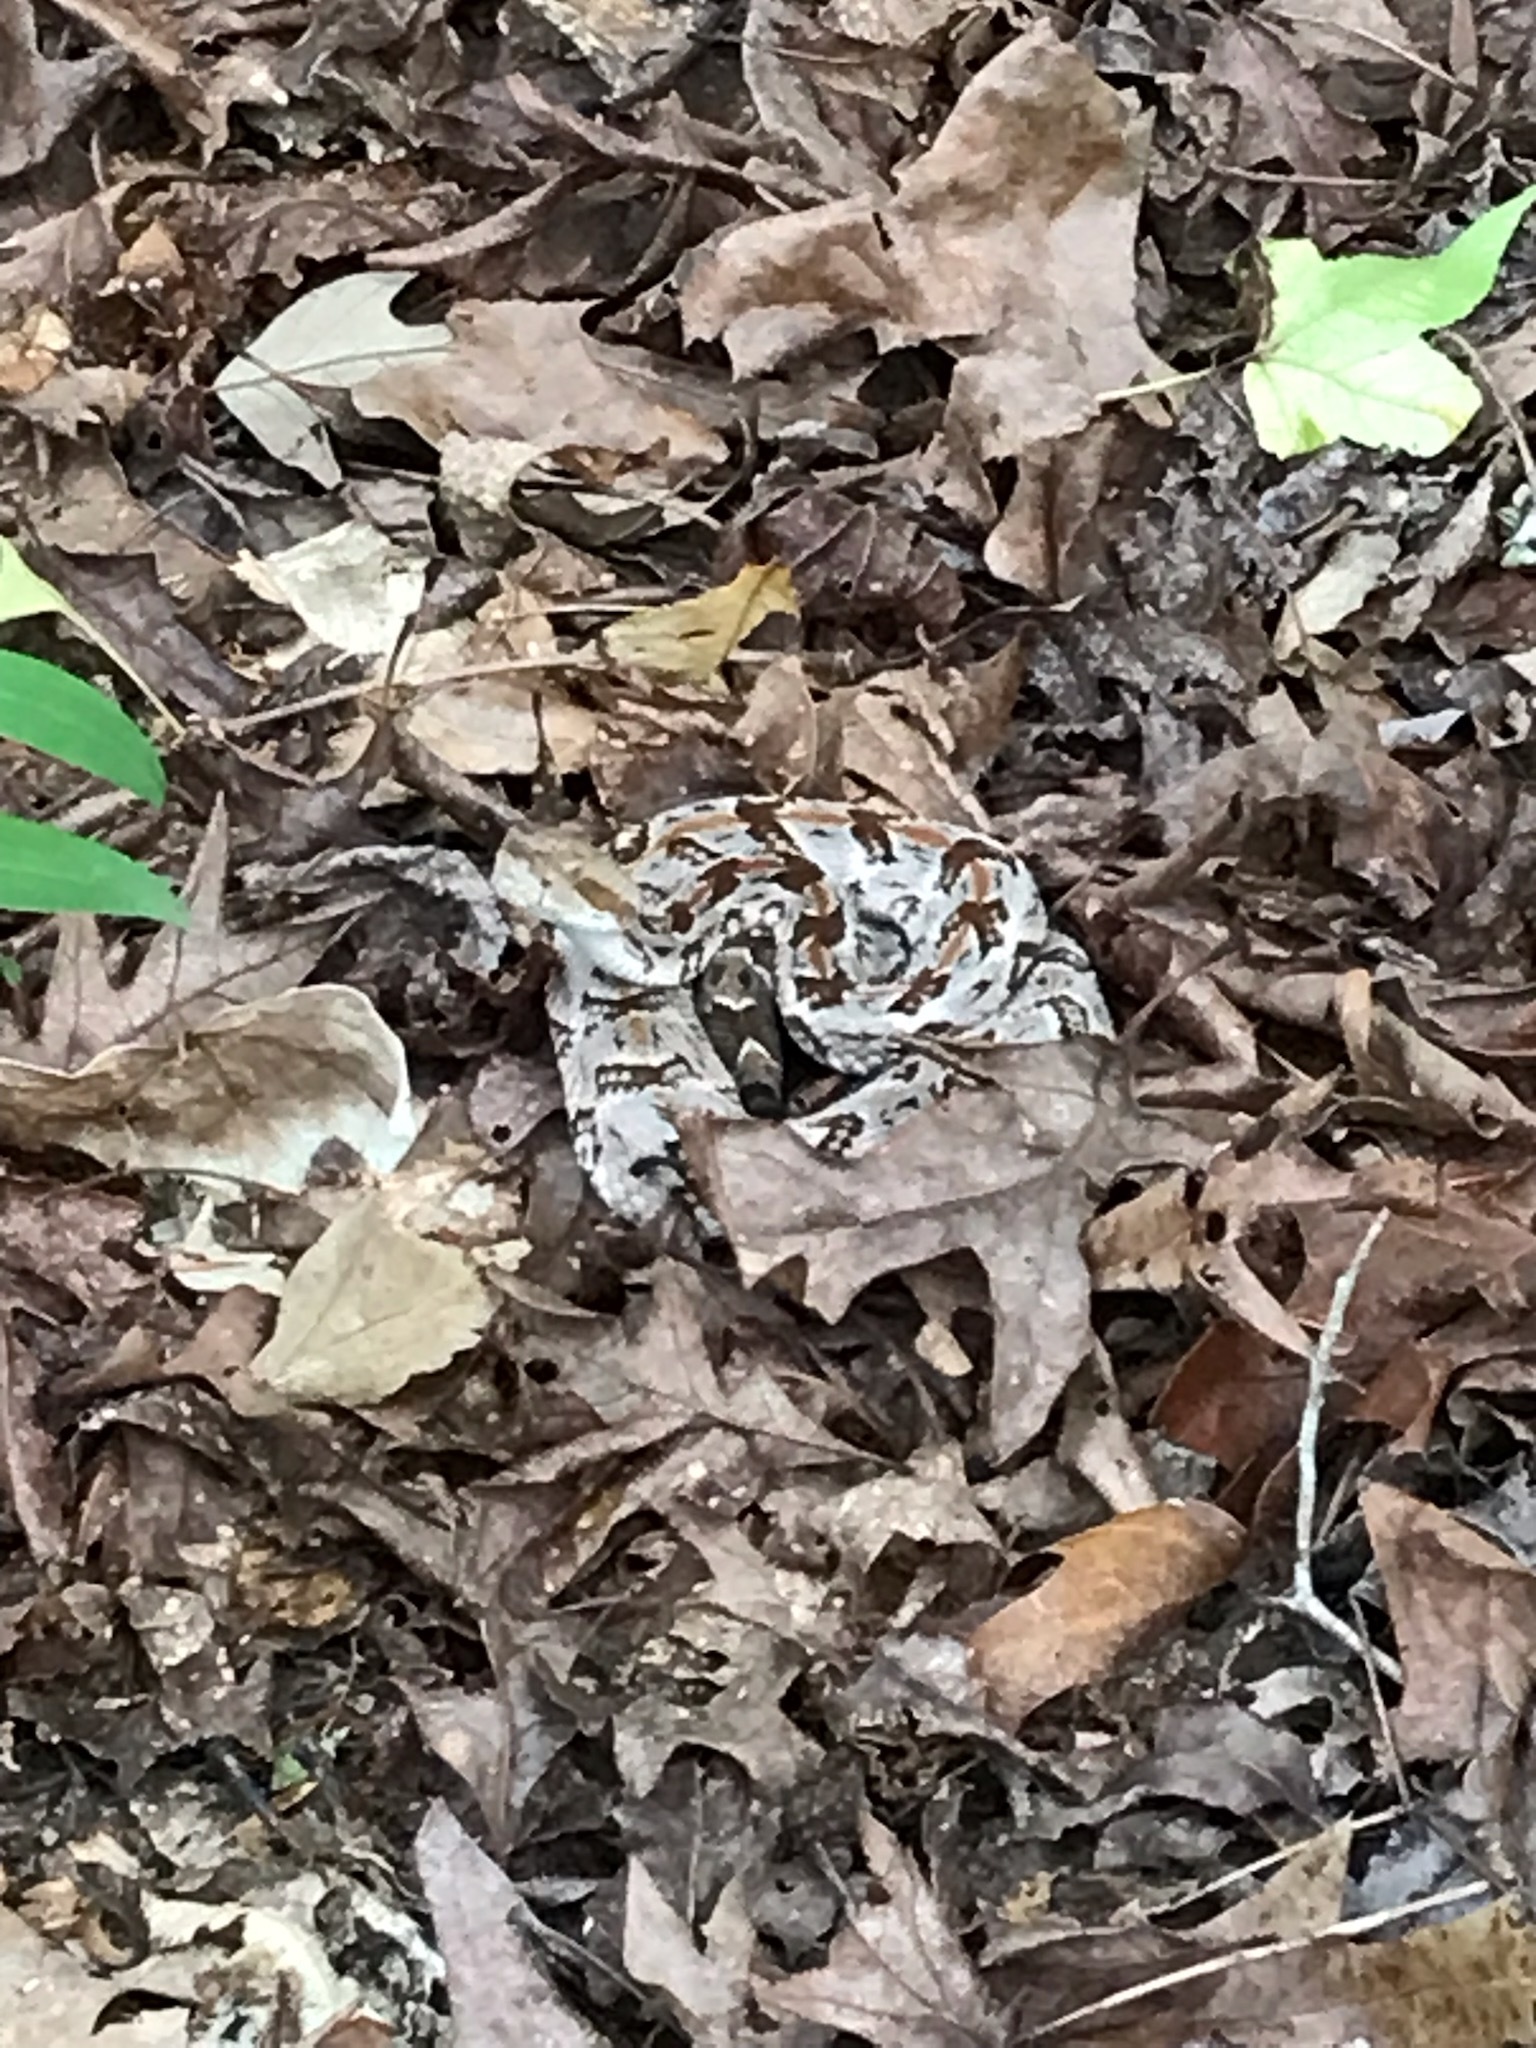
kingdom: Animalia
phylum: Chordata
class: Squamata
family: Viperidae
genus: Crotalus
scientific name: Crotalus horridus
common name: Timber rattlesnake
